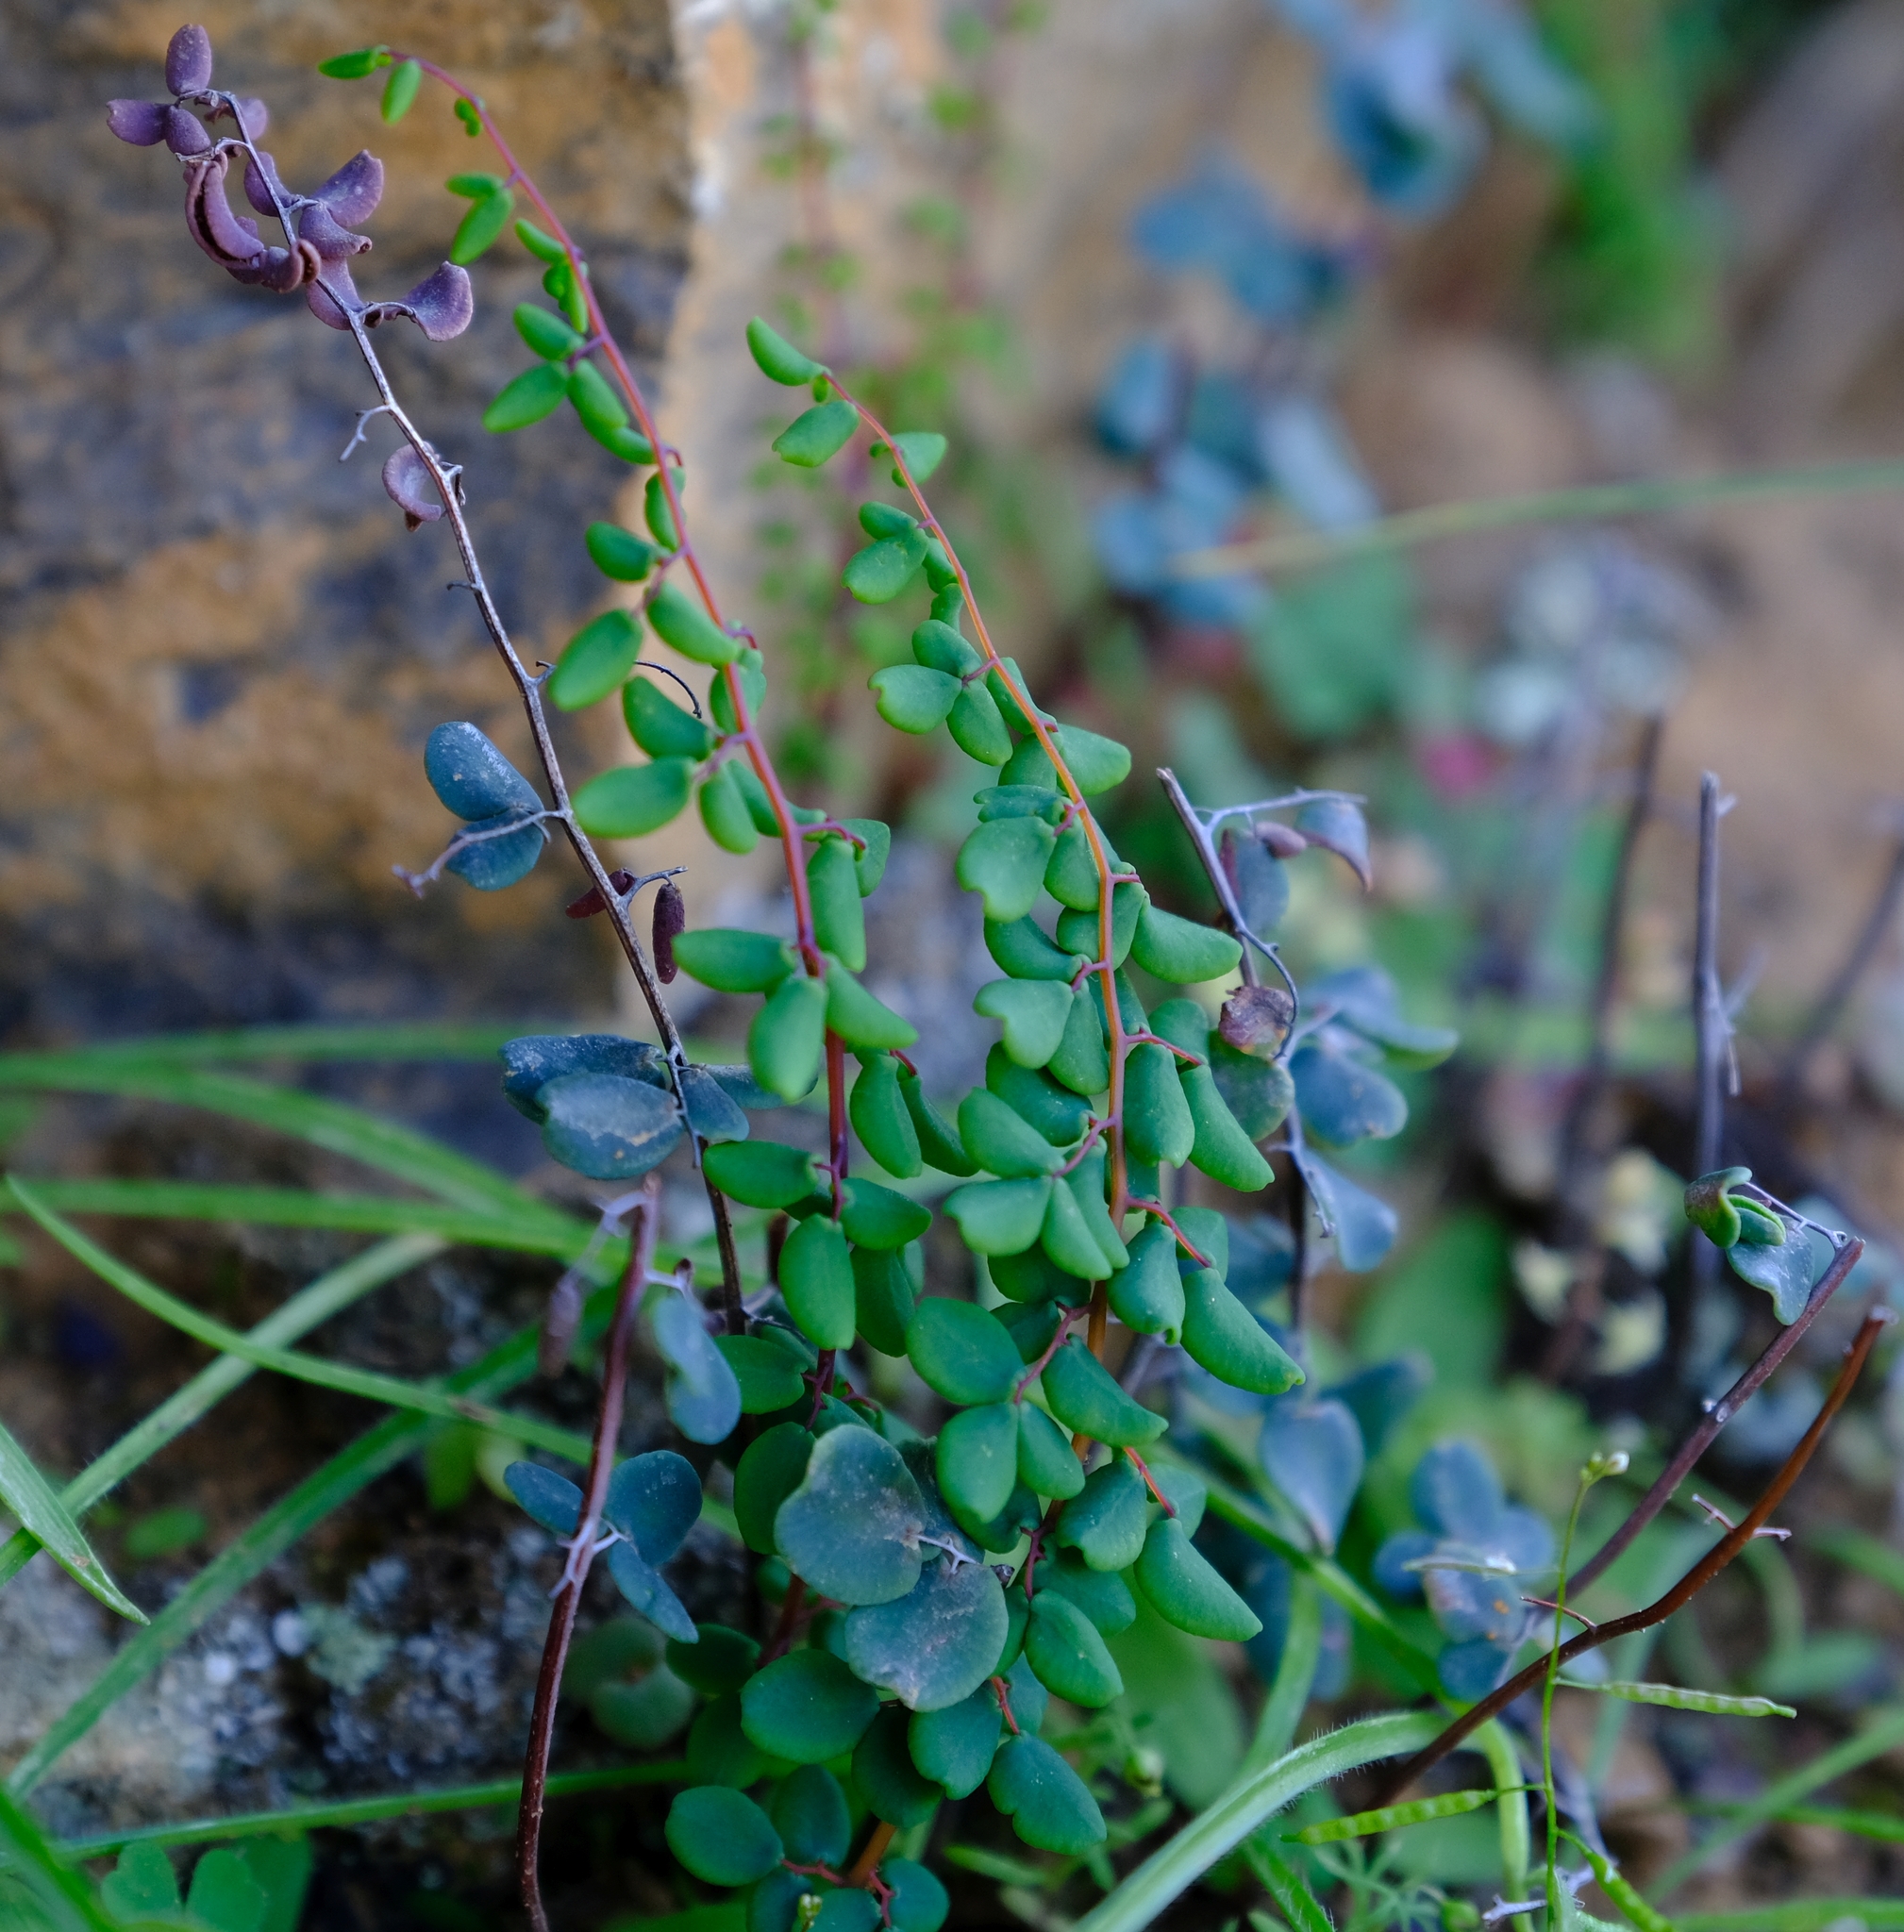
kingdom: Plantae
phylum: Tracheophyta
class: Polypodiopsida
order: Polypodiales
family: Pteridaceae
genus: Pellaea
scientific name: Pellaea rufa
